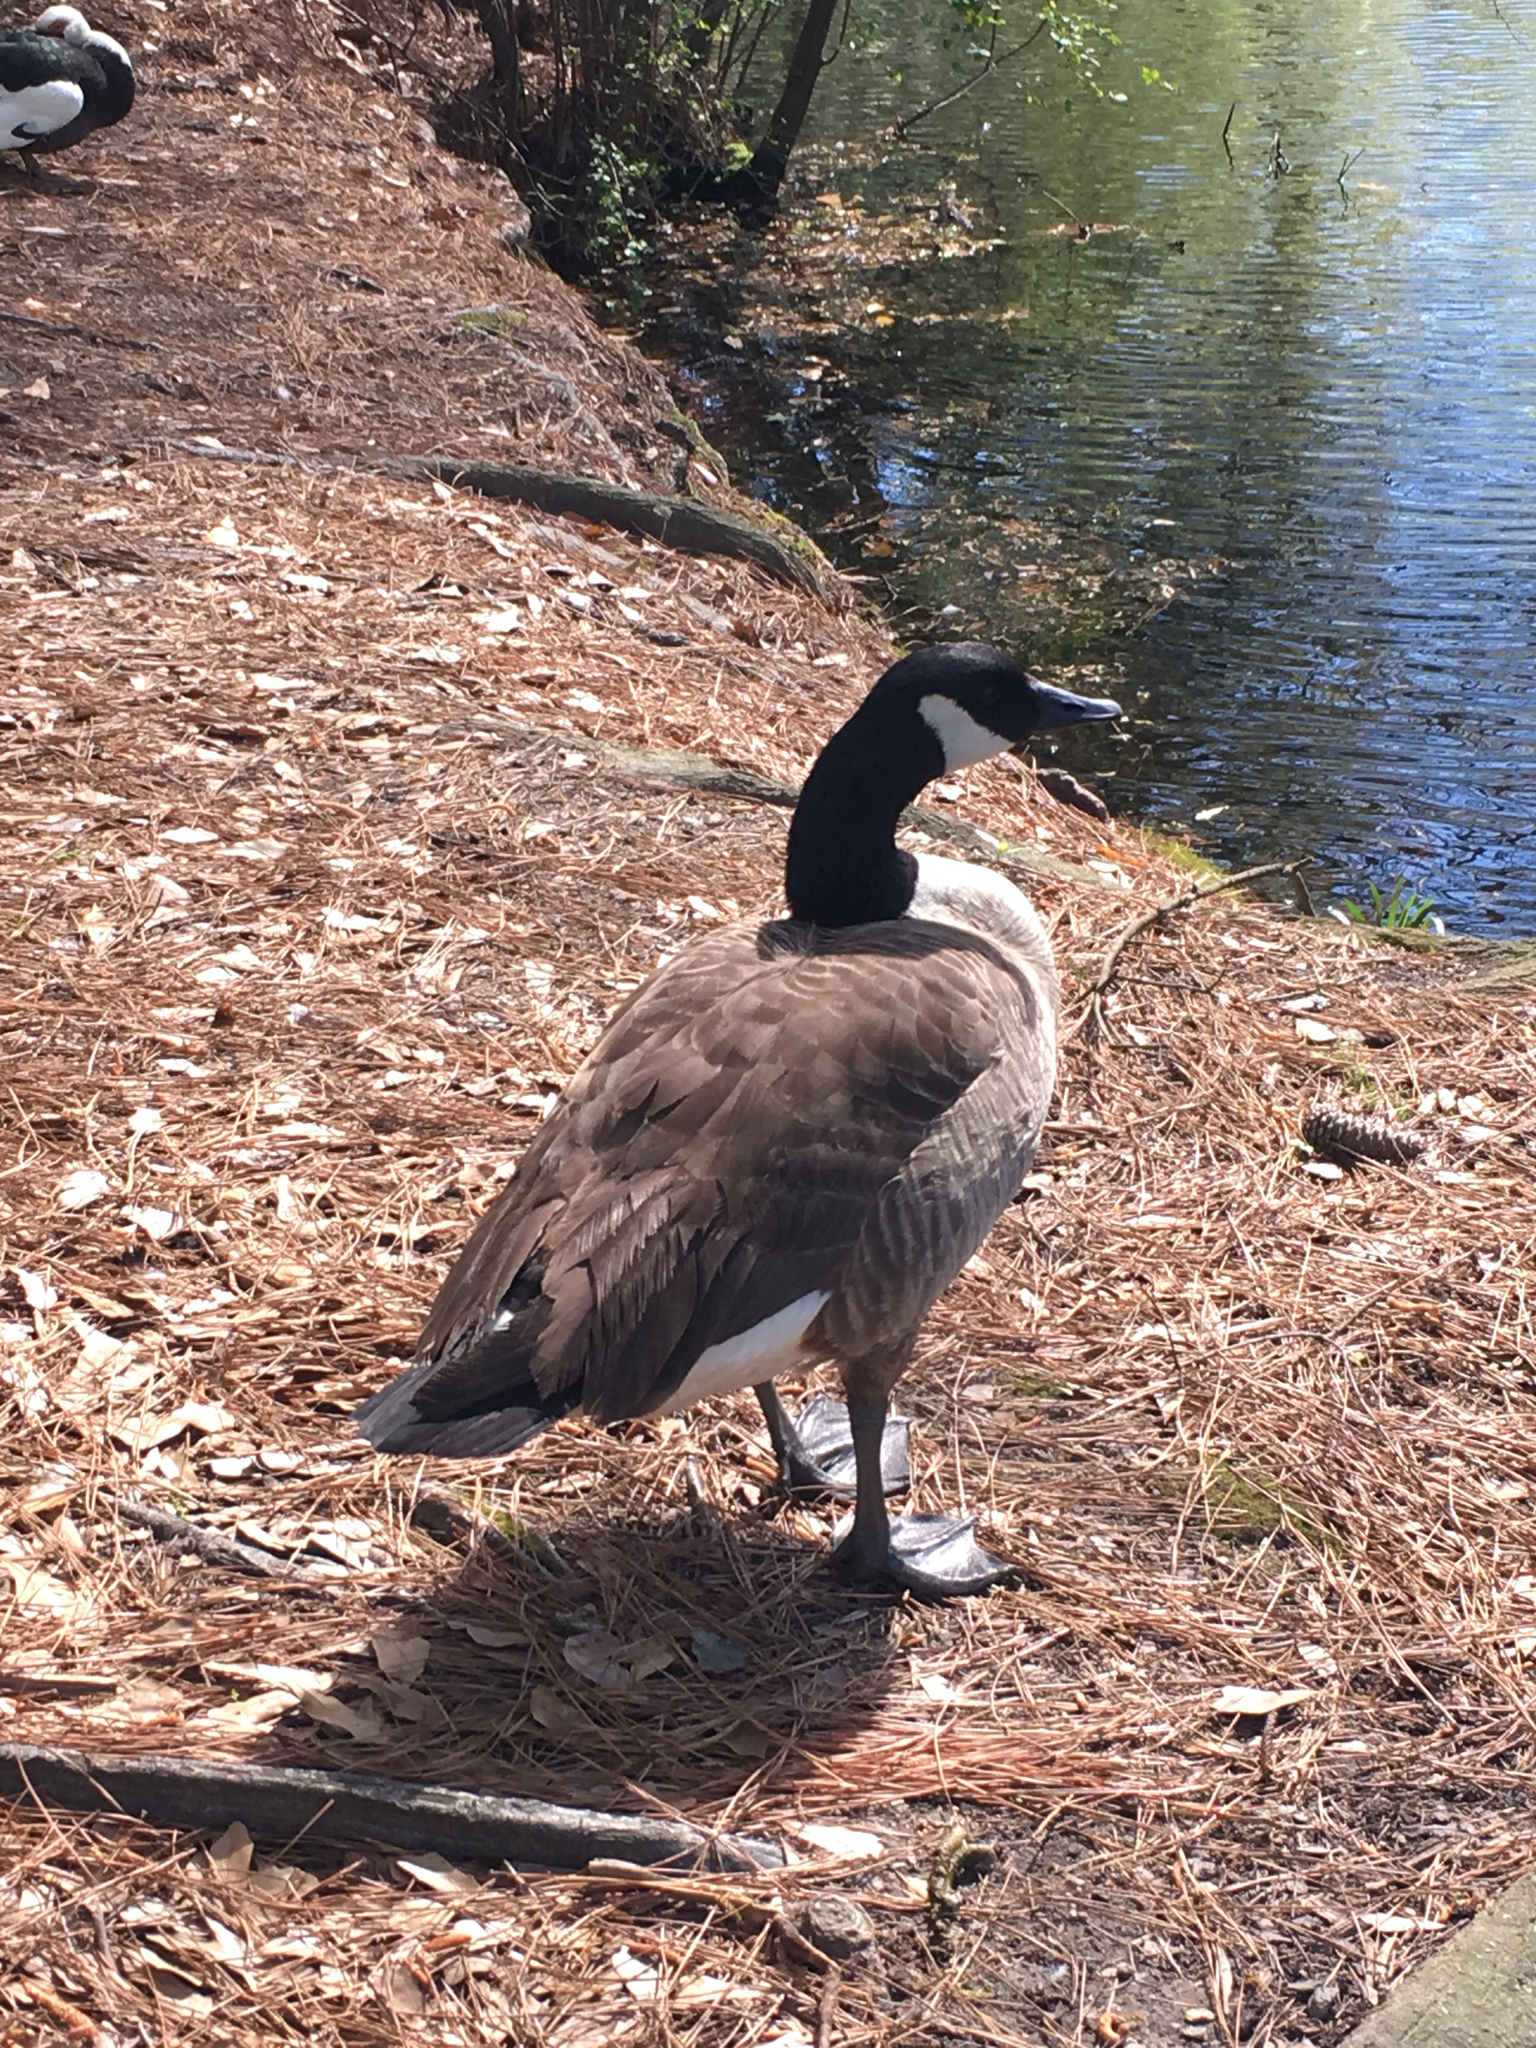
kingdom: Animalia
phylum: Chordata
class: Aves
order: Anseriformes
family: Anatidae
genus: Branta
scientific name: Branta canadensis
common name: Canada goose
